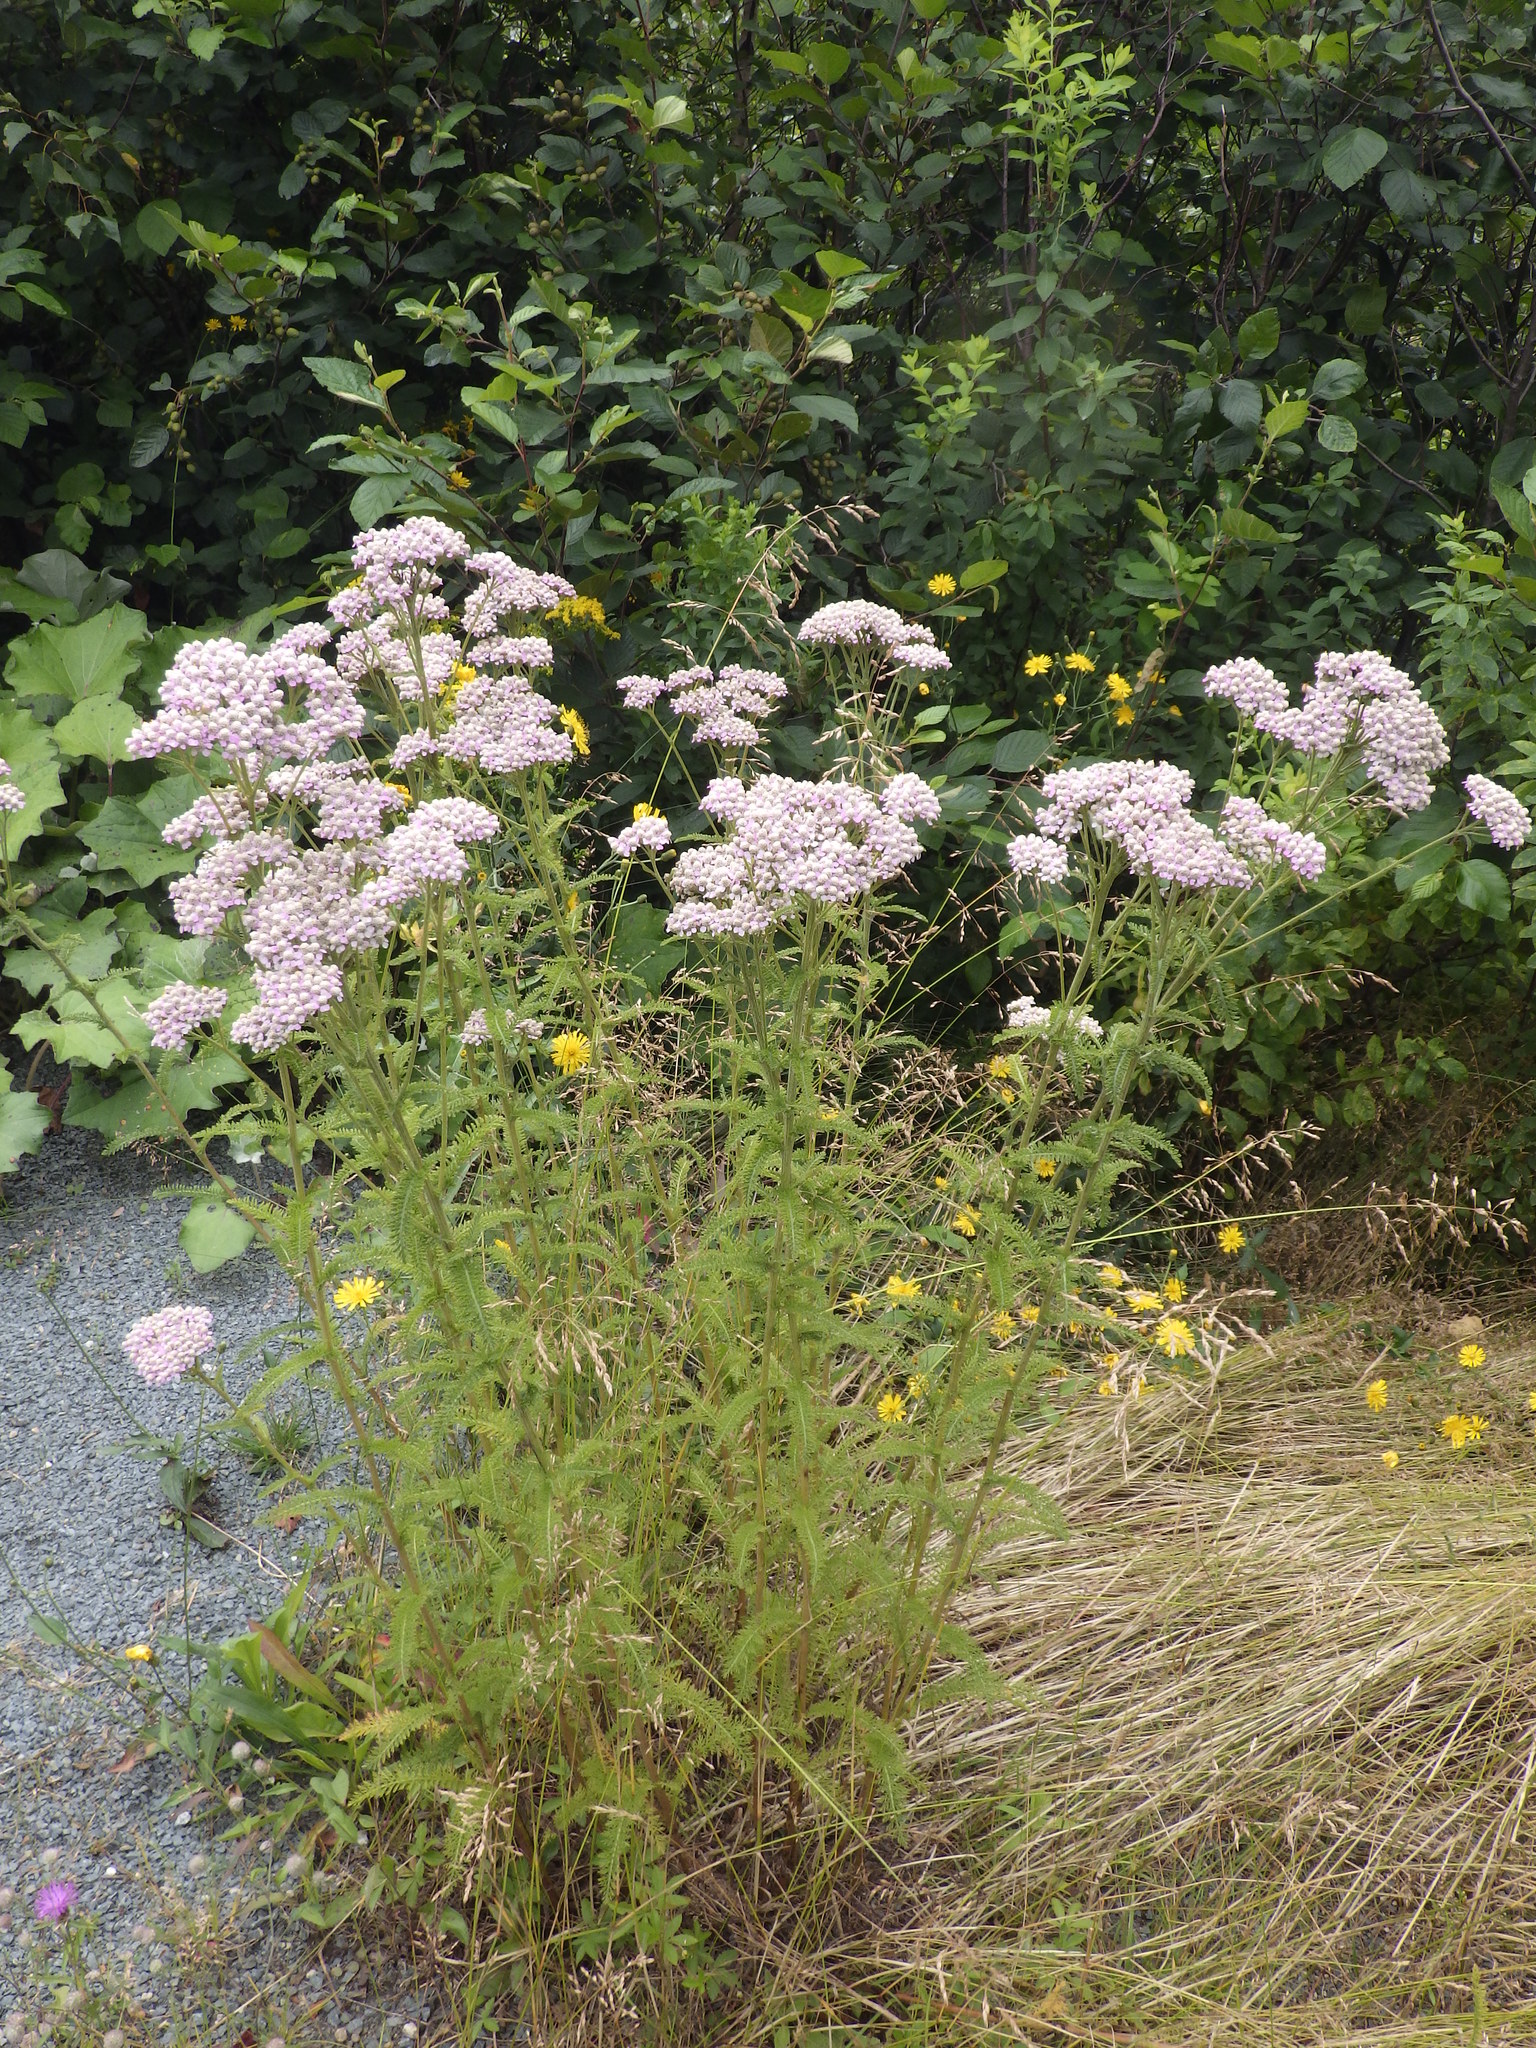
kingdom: Plantae
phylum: Tracheophyta
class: Magnoliopsida
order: Asterales
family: Asteraceae
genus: Achillea
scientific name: Achillea millefolium
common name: Yarrow
